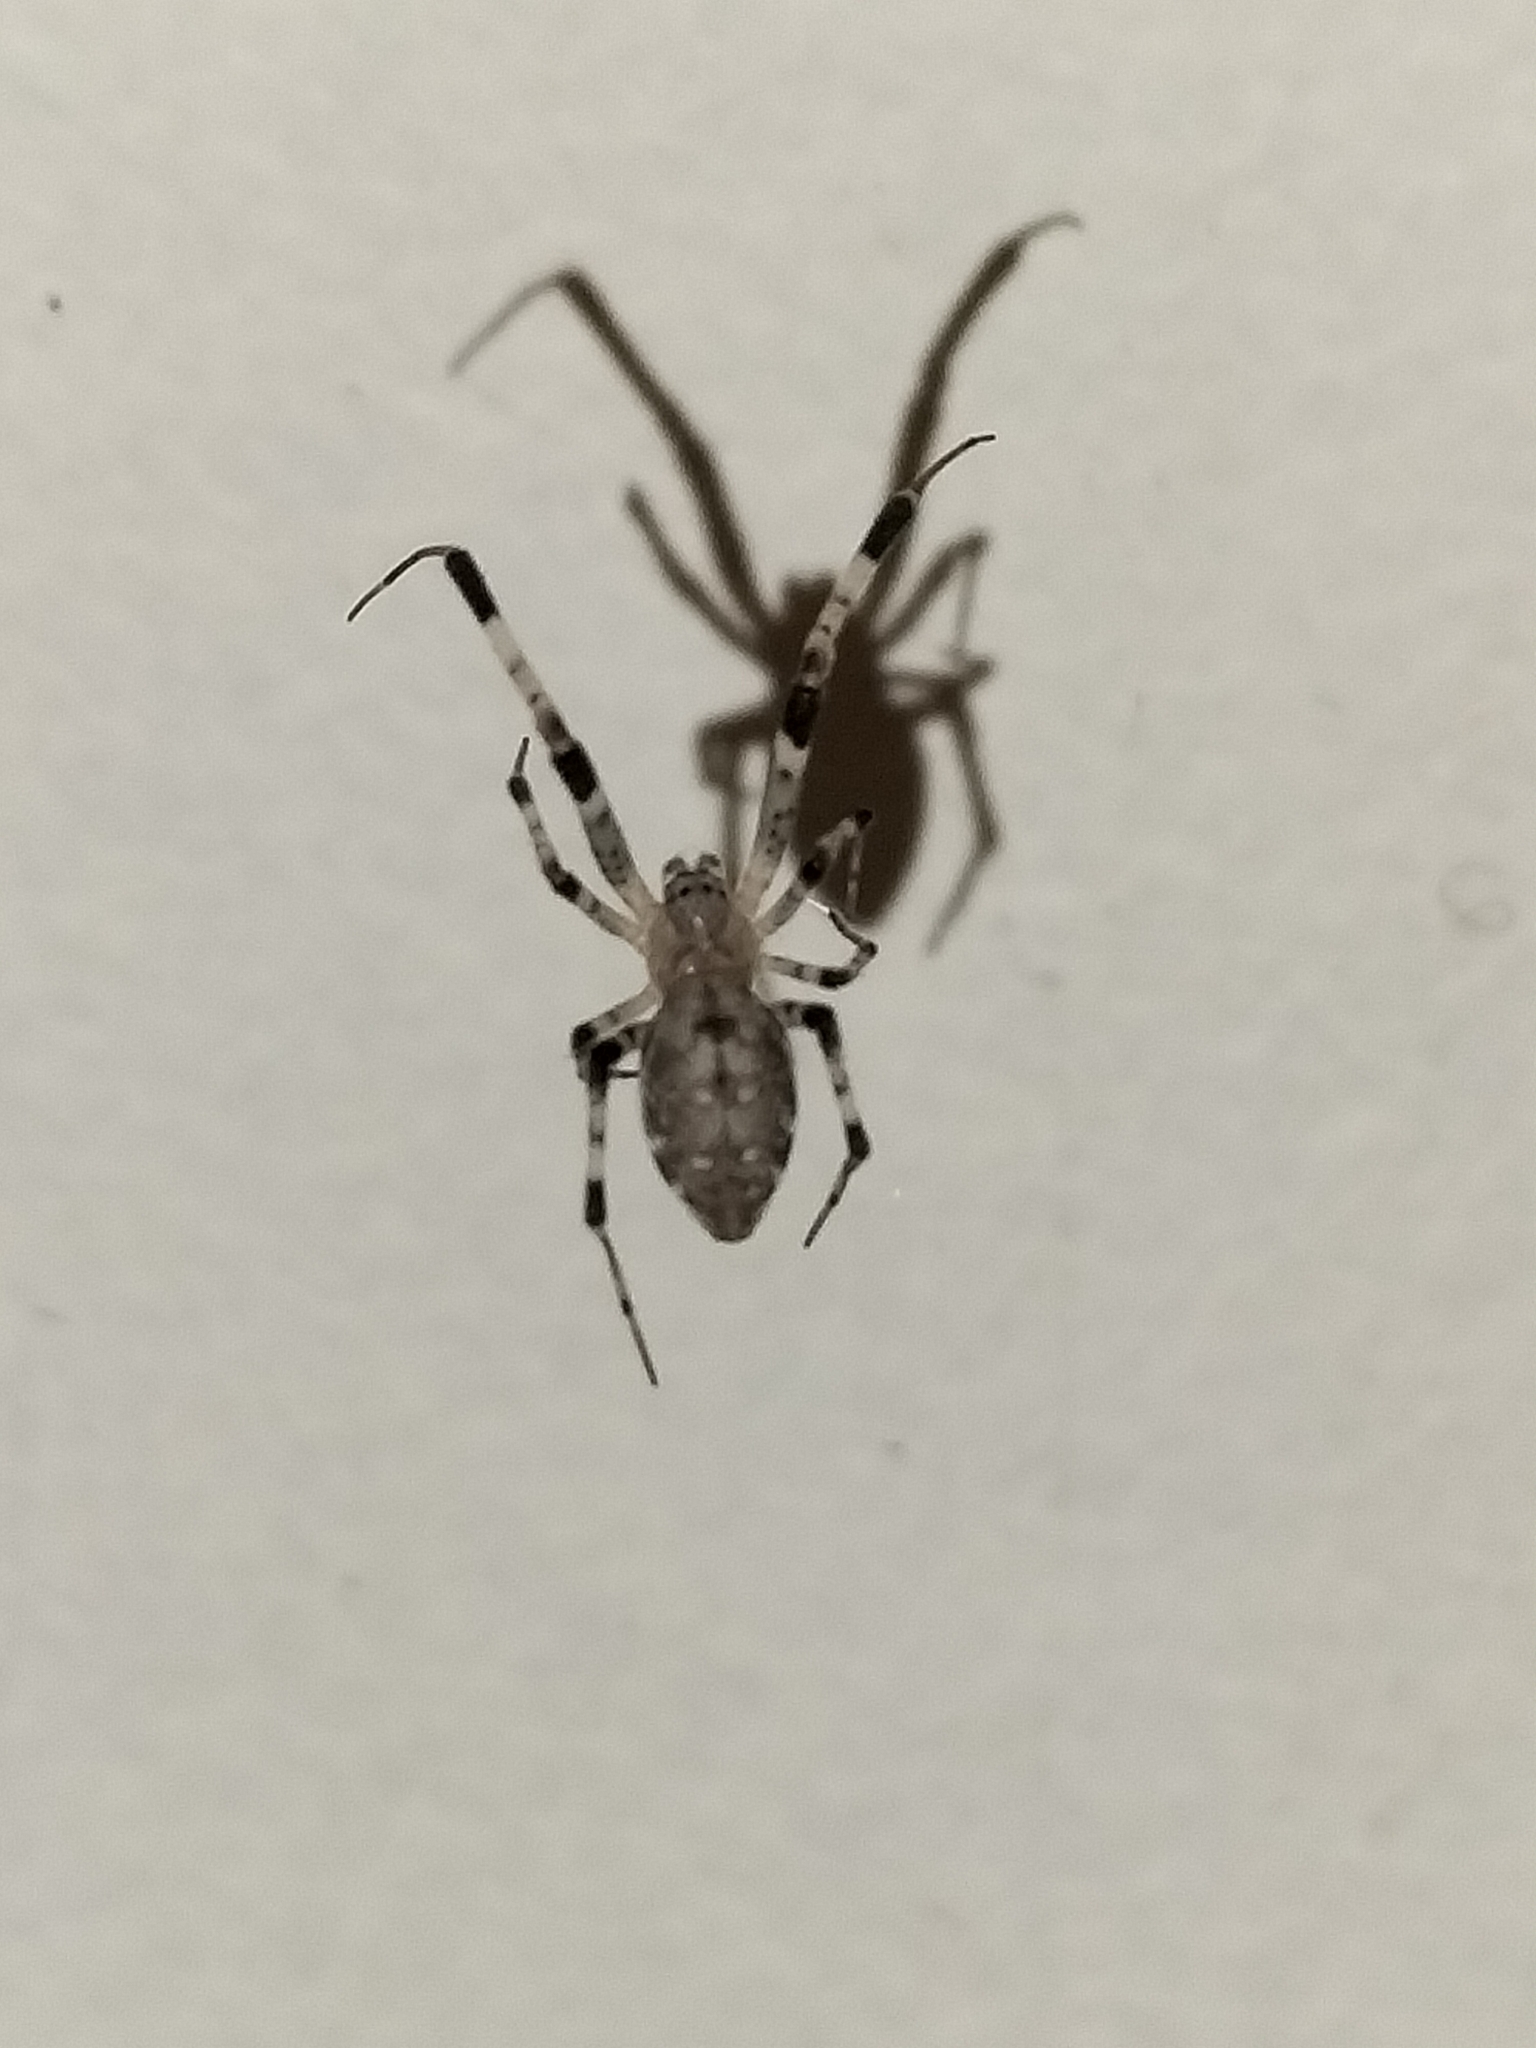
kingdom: Animalia
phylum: Arthropoda
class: Arachnida
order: Araneae
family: Uloboridae
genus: Zosis
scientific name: Zosis geniculata
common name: Hackled orb weavers
